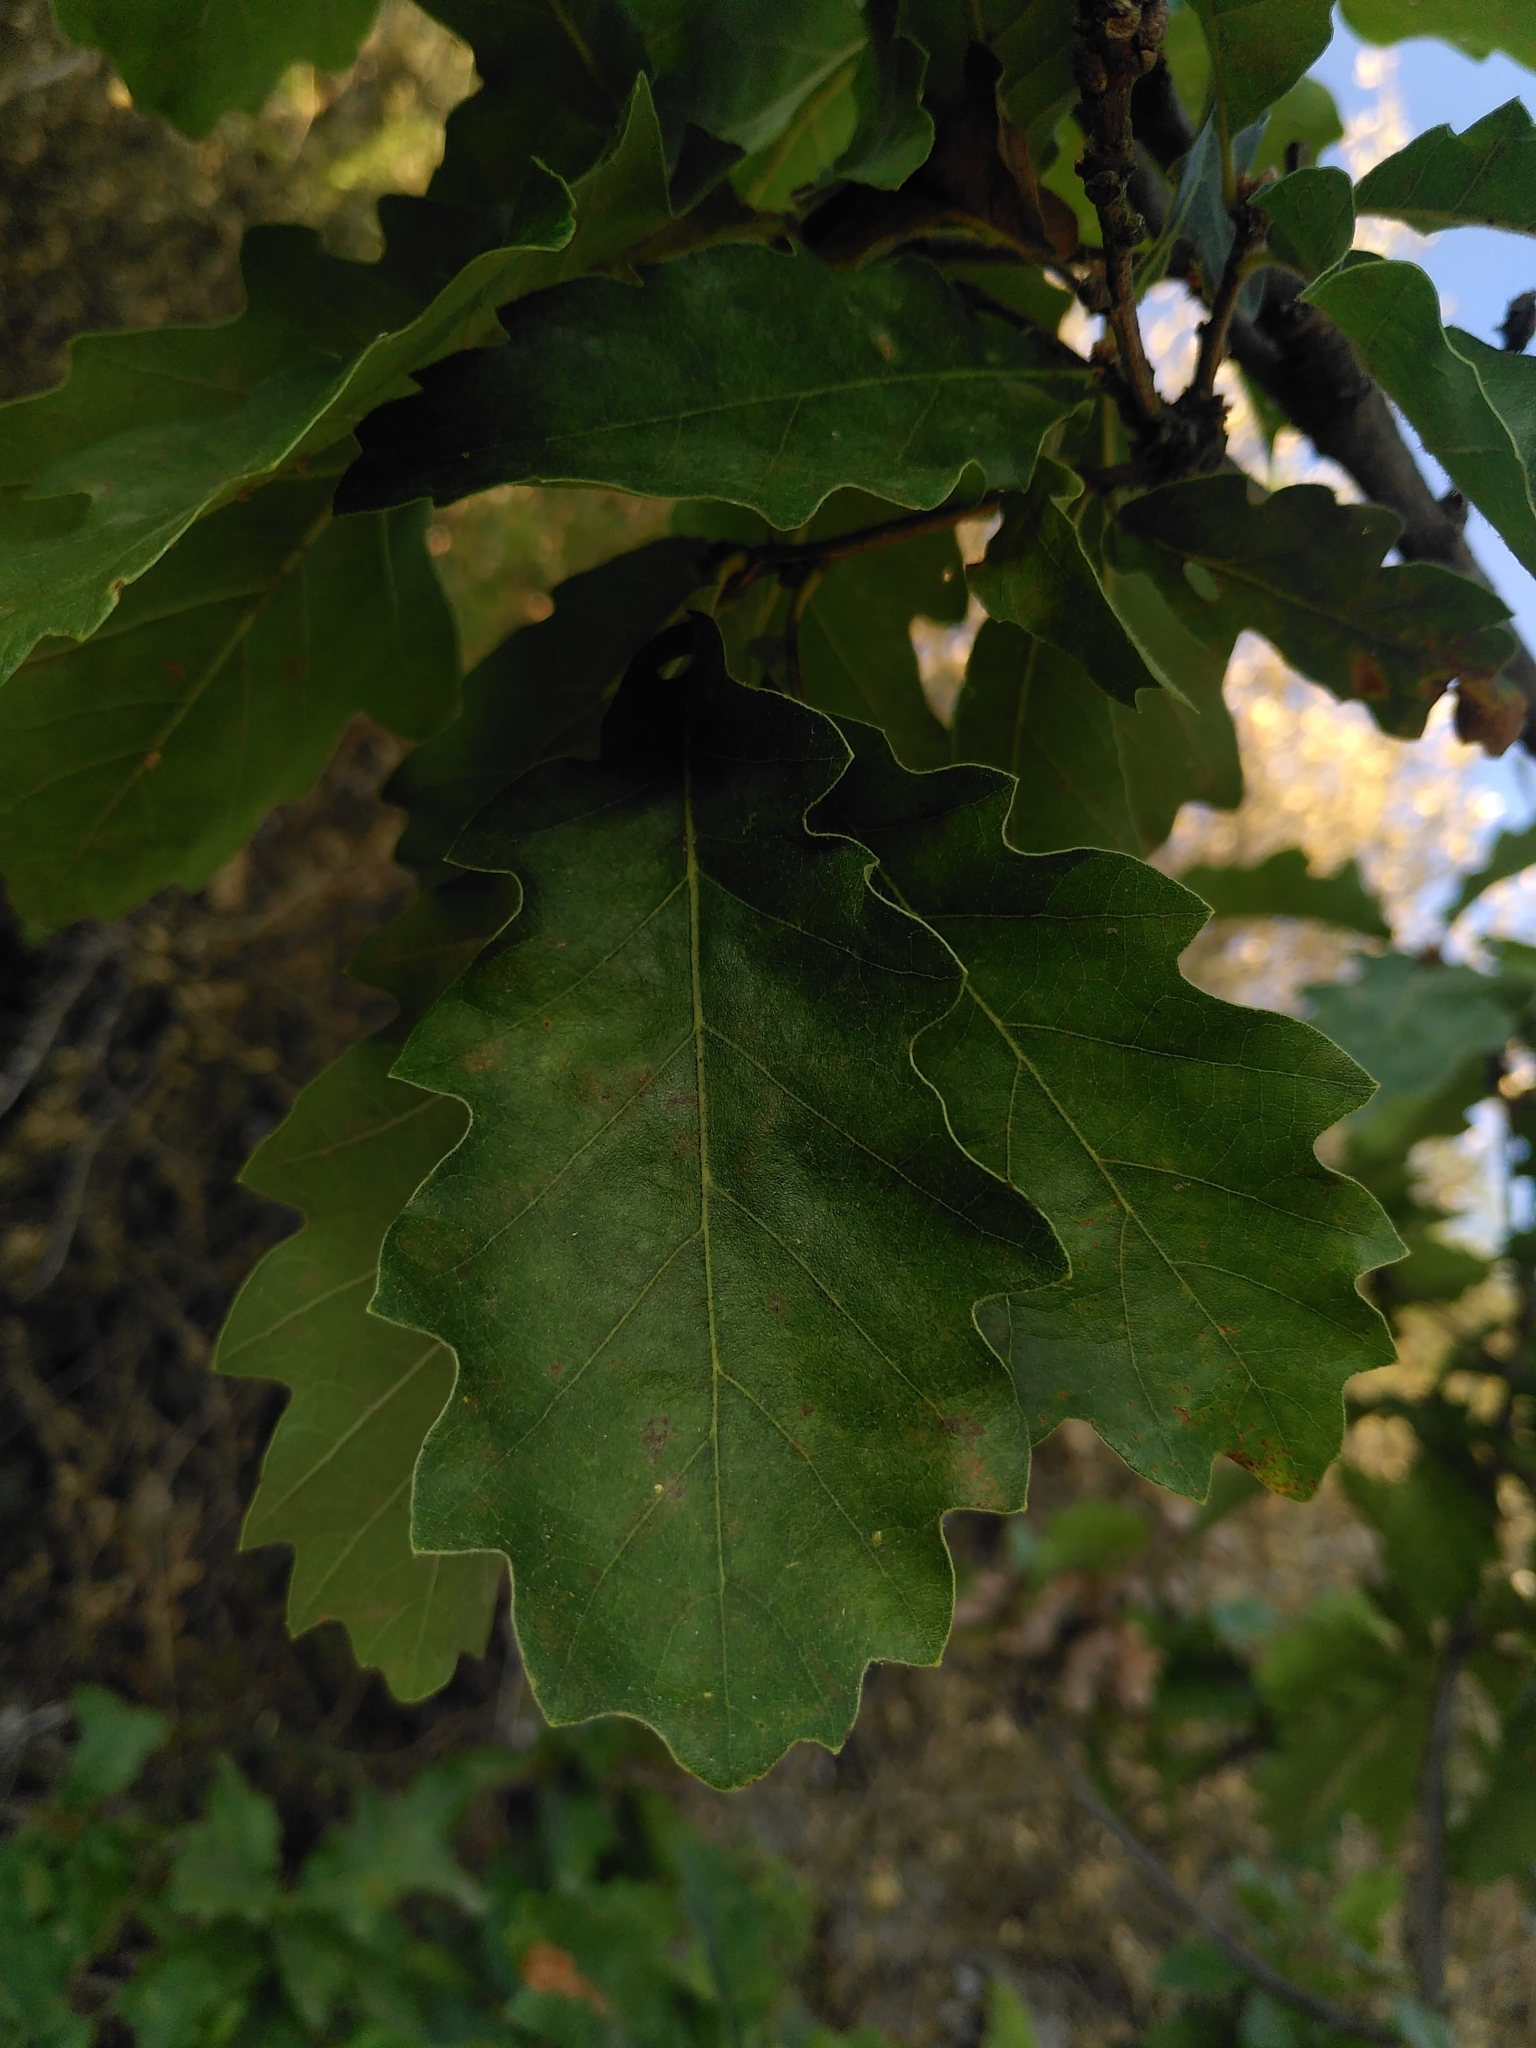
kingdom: Plantae
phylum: Tracheophyta
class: Magnoliopsida
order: Fagales
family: Fagaceae
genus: Quercus
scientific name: Quercus pubescens
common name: Downy oak
